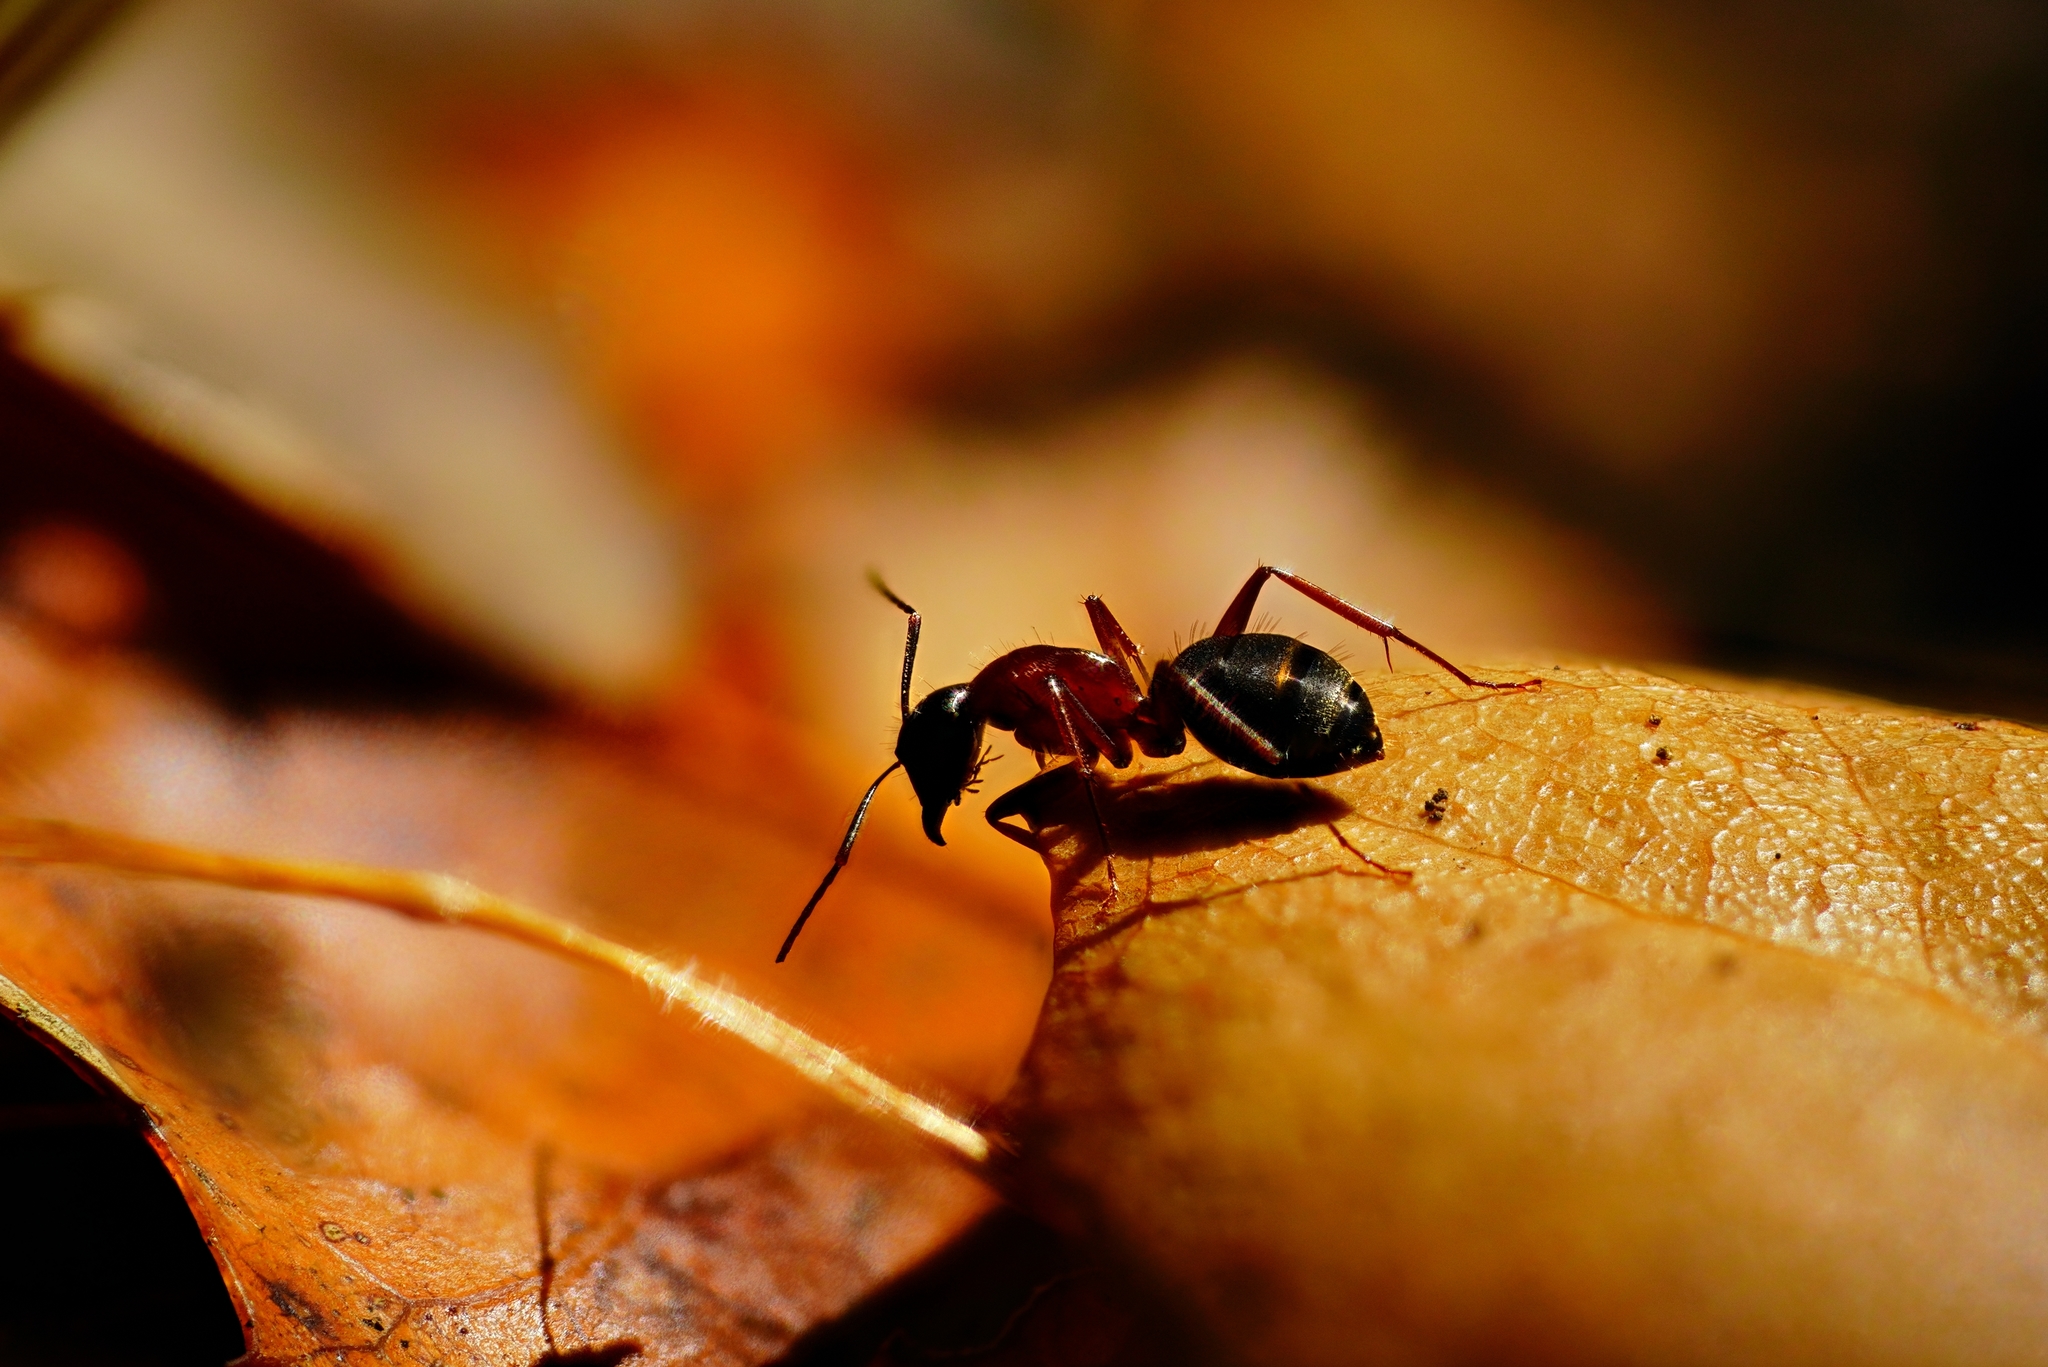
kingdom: Animalia
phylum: Arthropoda
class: Insecta
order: Hymenoptera
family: Formicidae
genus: Camponotus
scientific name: Camponotus vicinus
